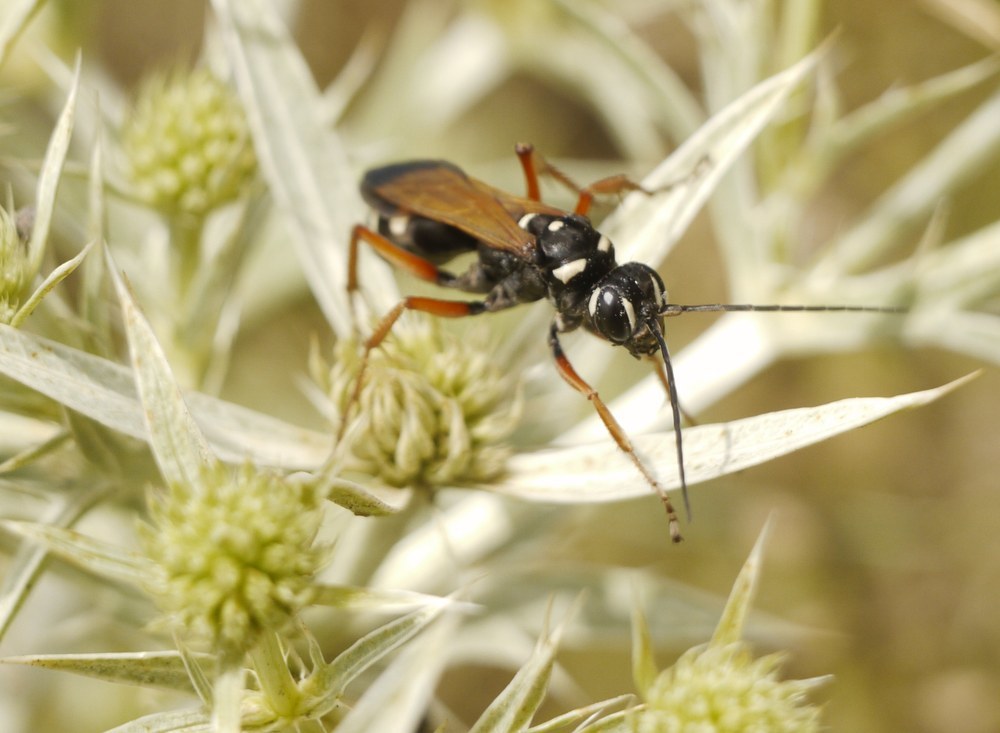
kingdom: Animalia
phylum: Arthropoda
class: Insecta
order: Hymenoptera
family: Pompilidae
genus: Cryptocheilus
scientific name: Cryptocheilus variabilis
